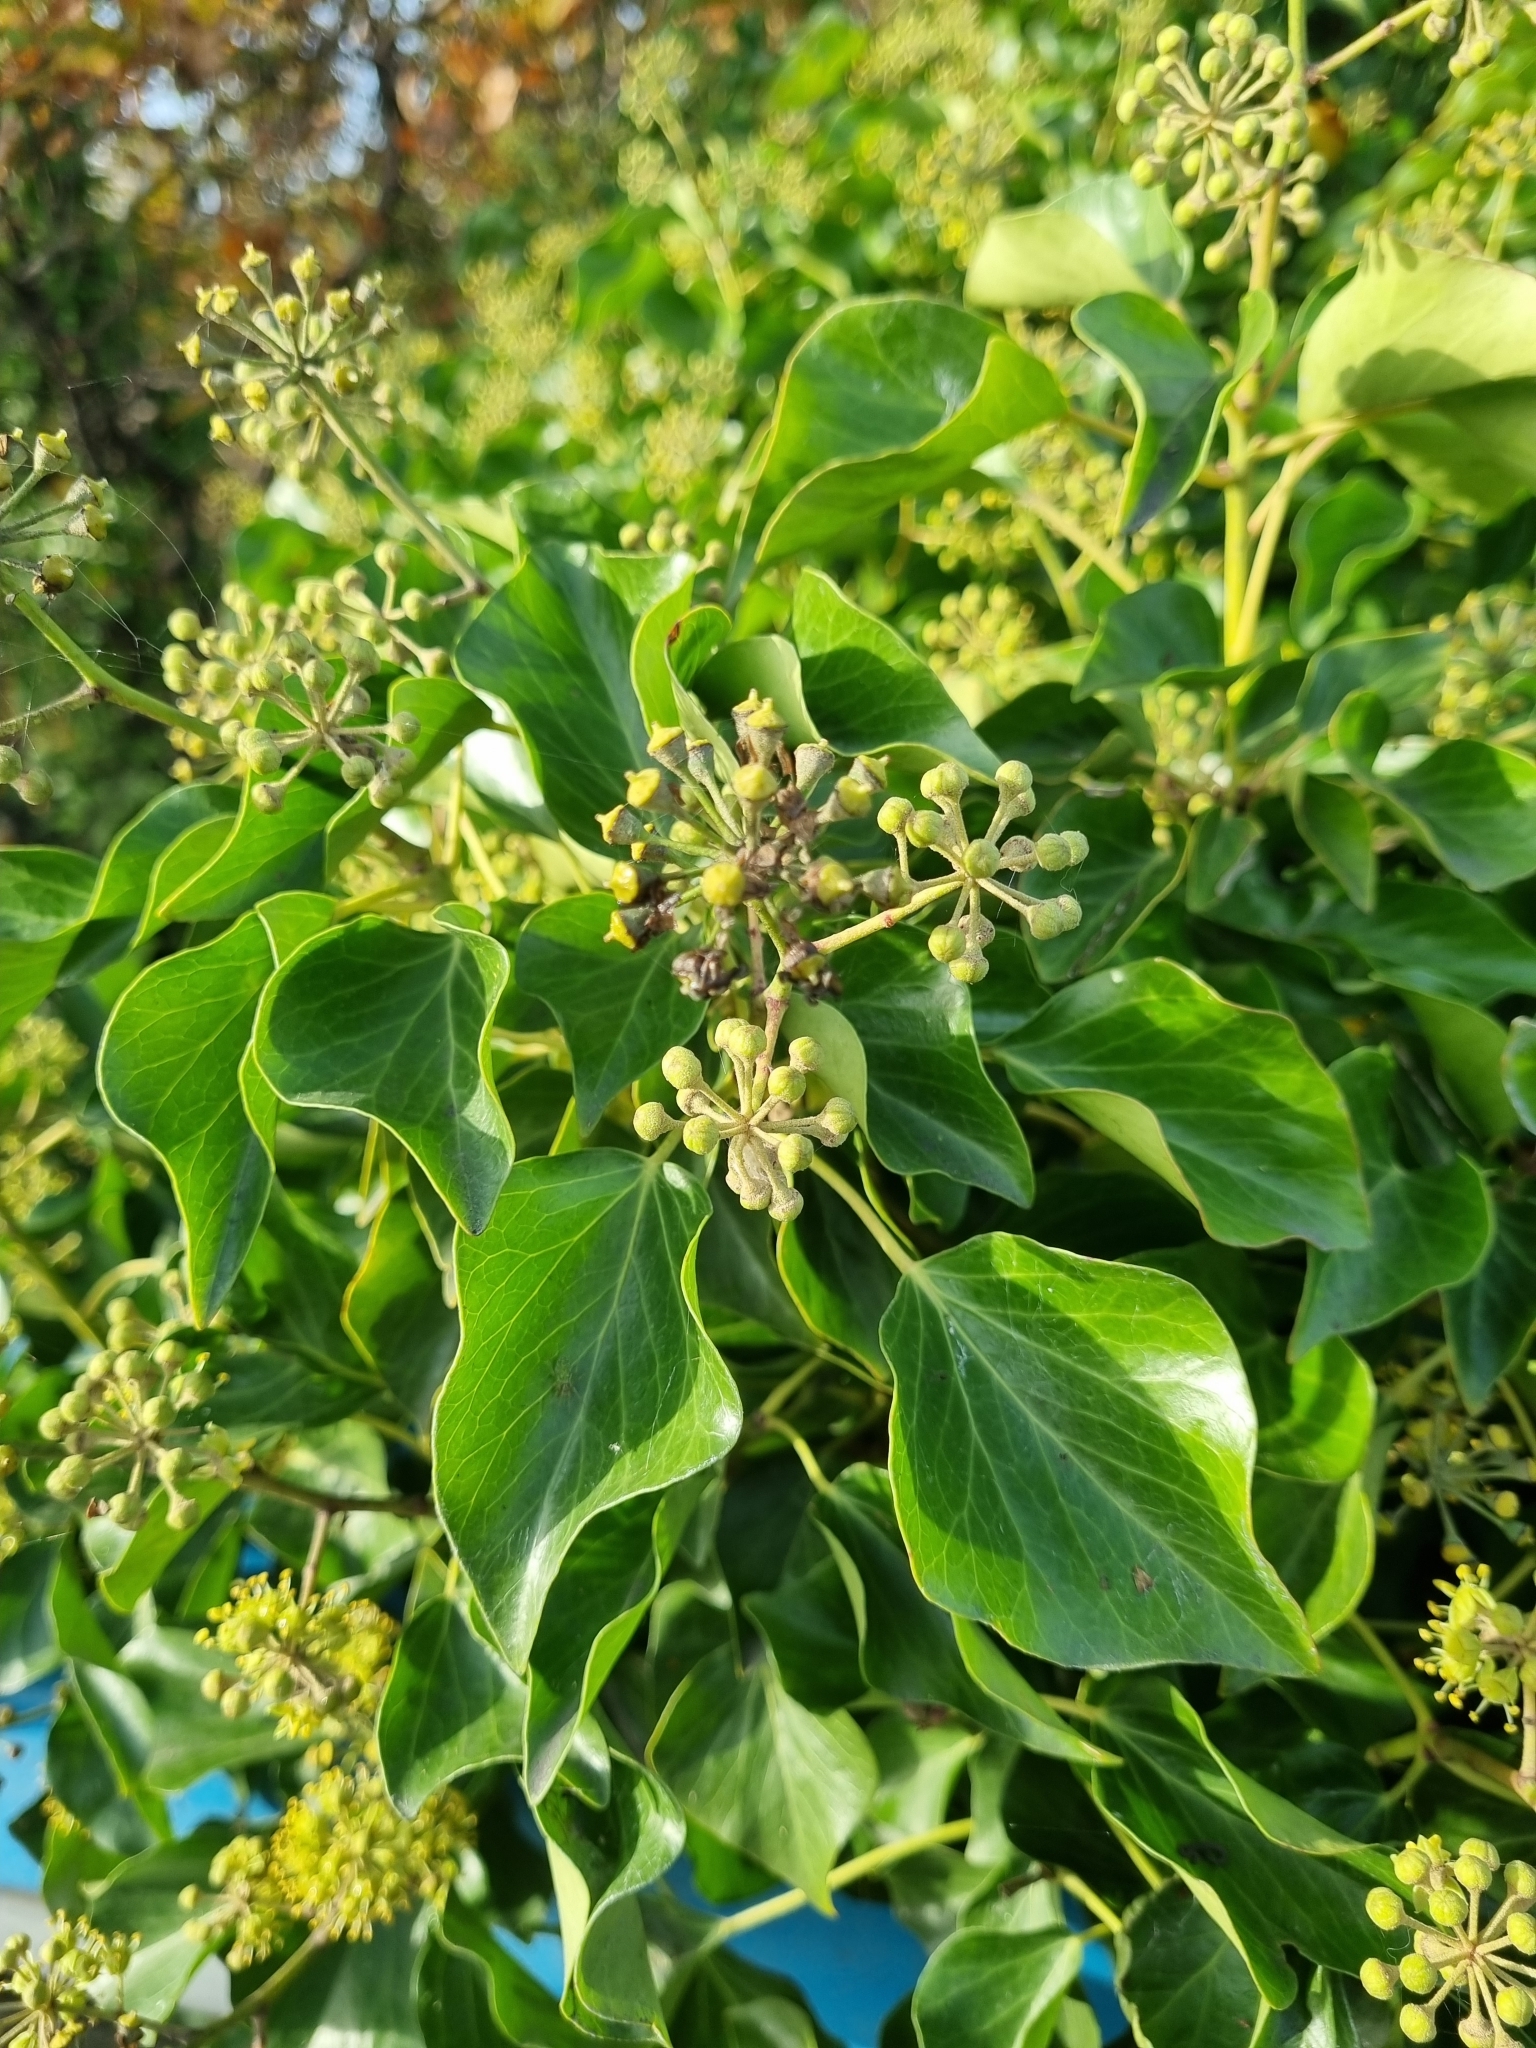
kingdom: Plantae
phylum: Tracheophyta
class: Magnoliopsida
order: Apiales
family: Araliaceae
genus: Hedera
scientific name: Hedera helix
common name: Ivy
